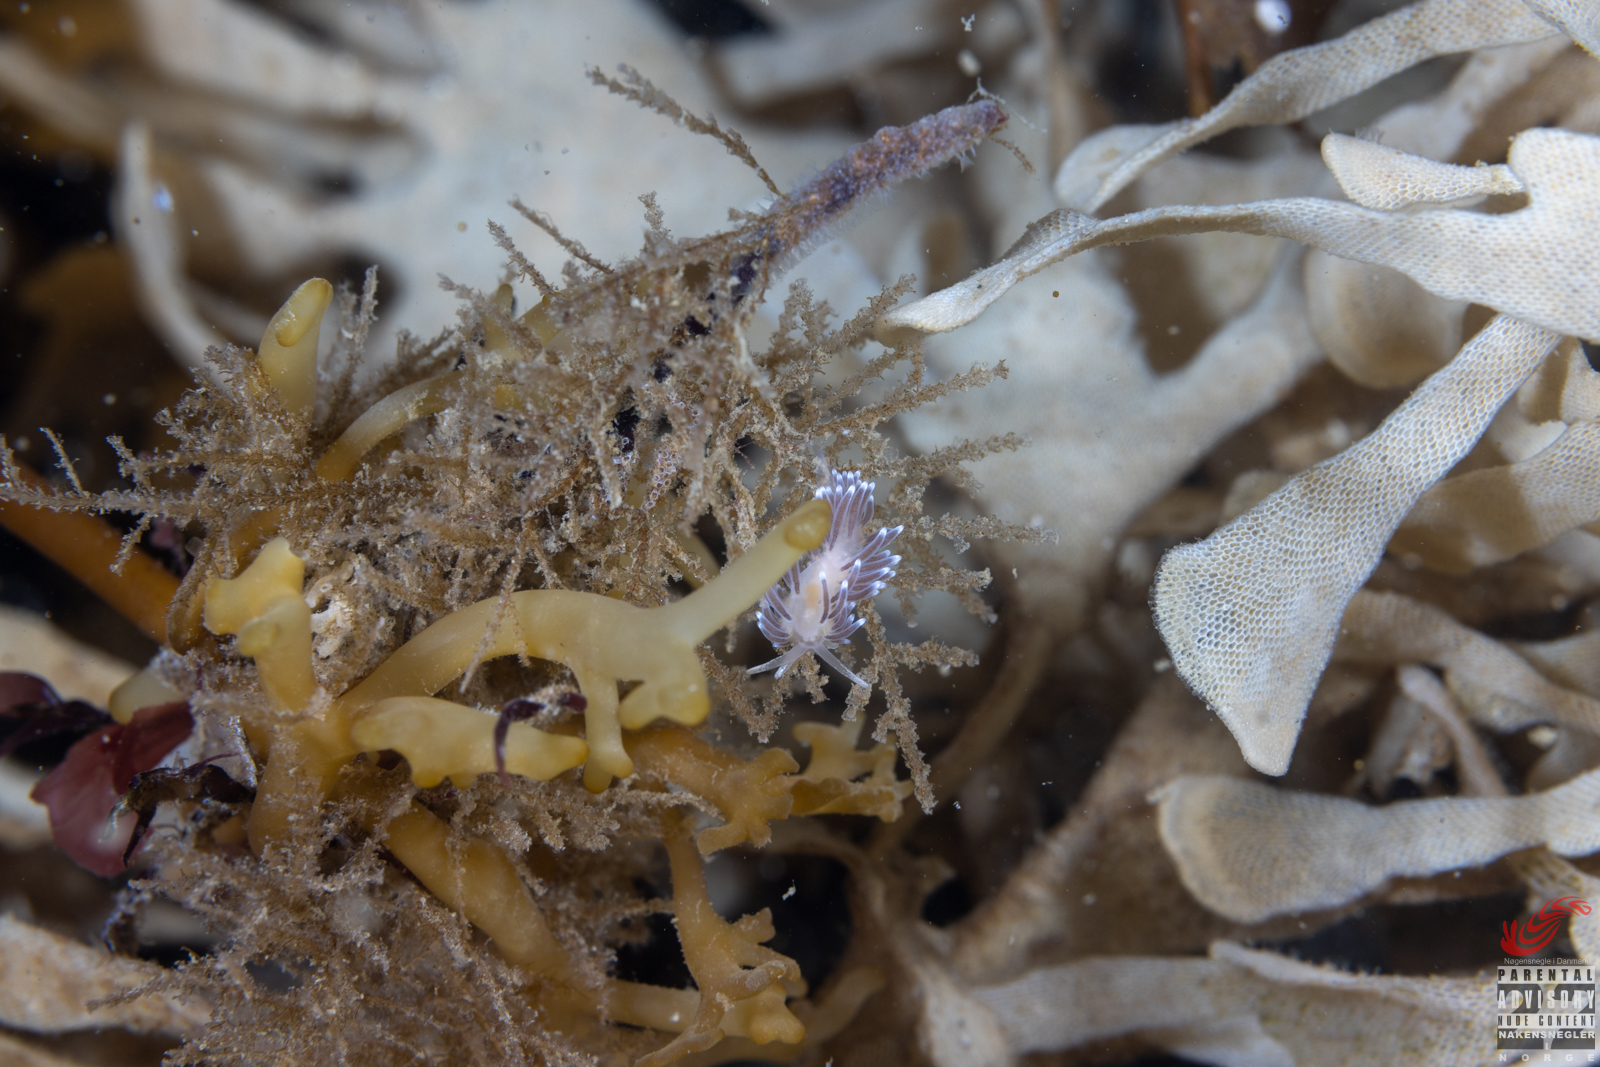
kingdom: Animalia
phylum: Mollusca
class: Gastropoda
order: Nudibranchia
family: Cuthonellidae
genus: Cuthonella
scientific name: Cuthonella concinna
